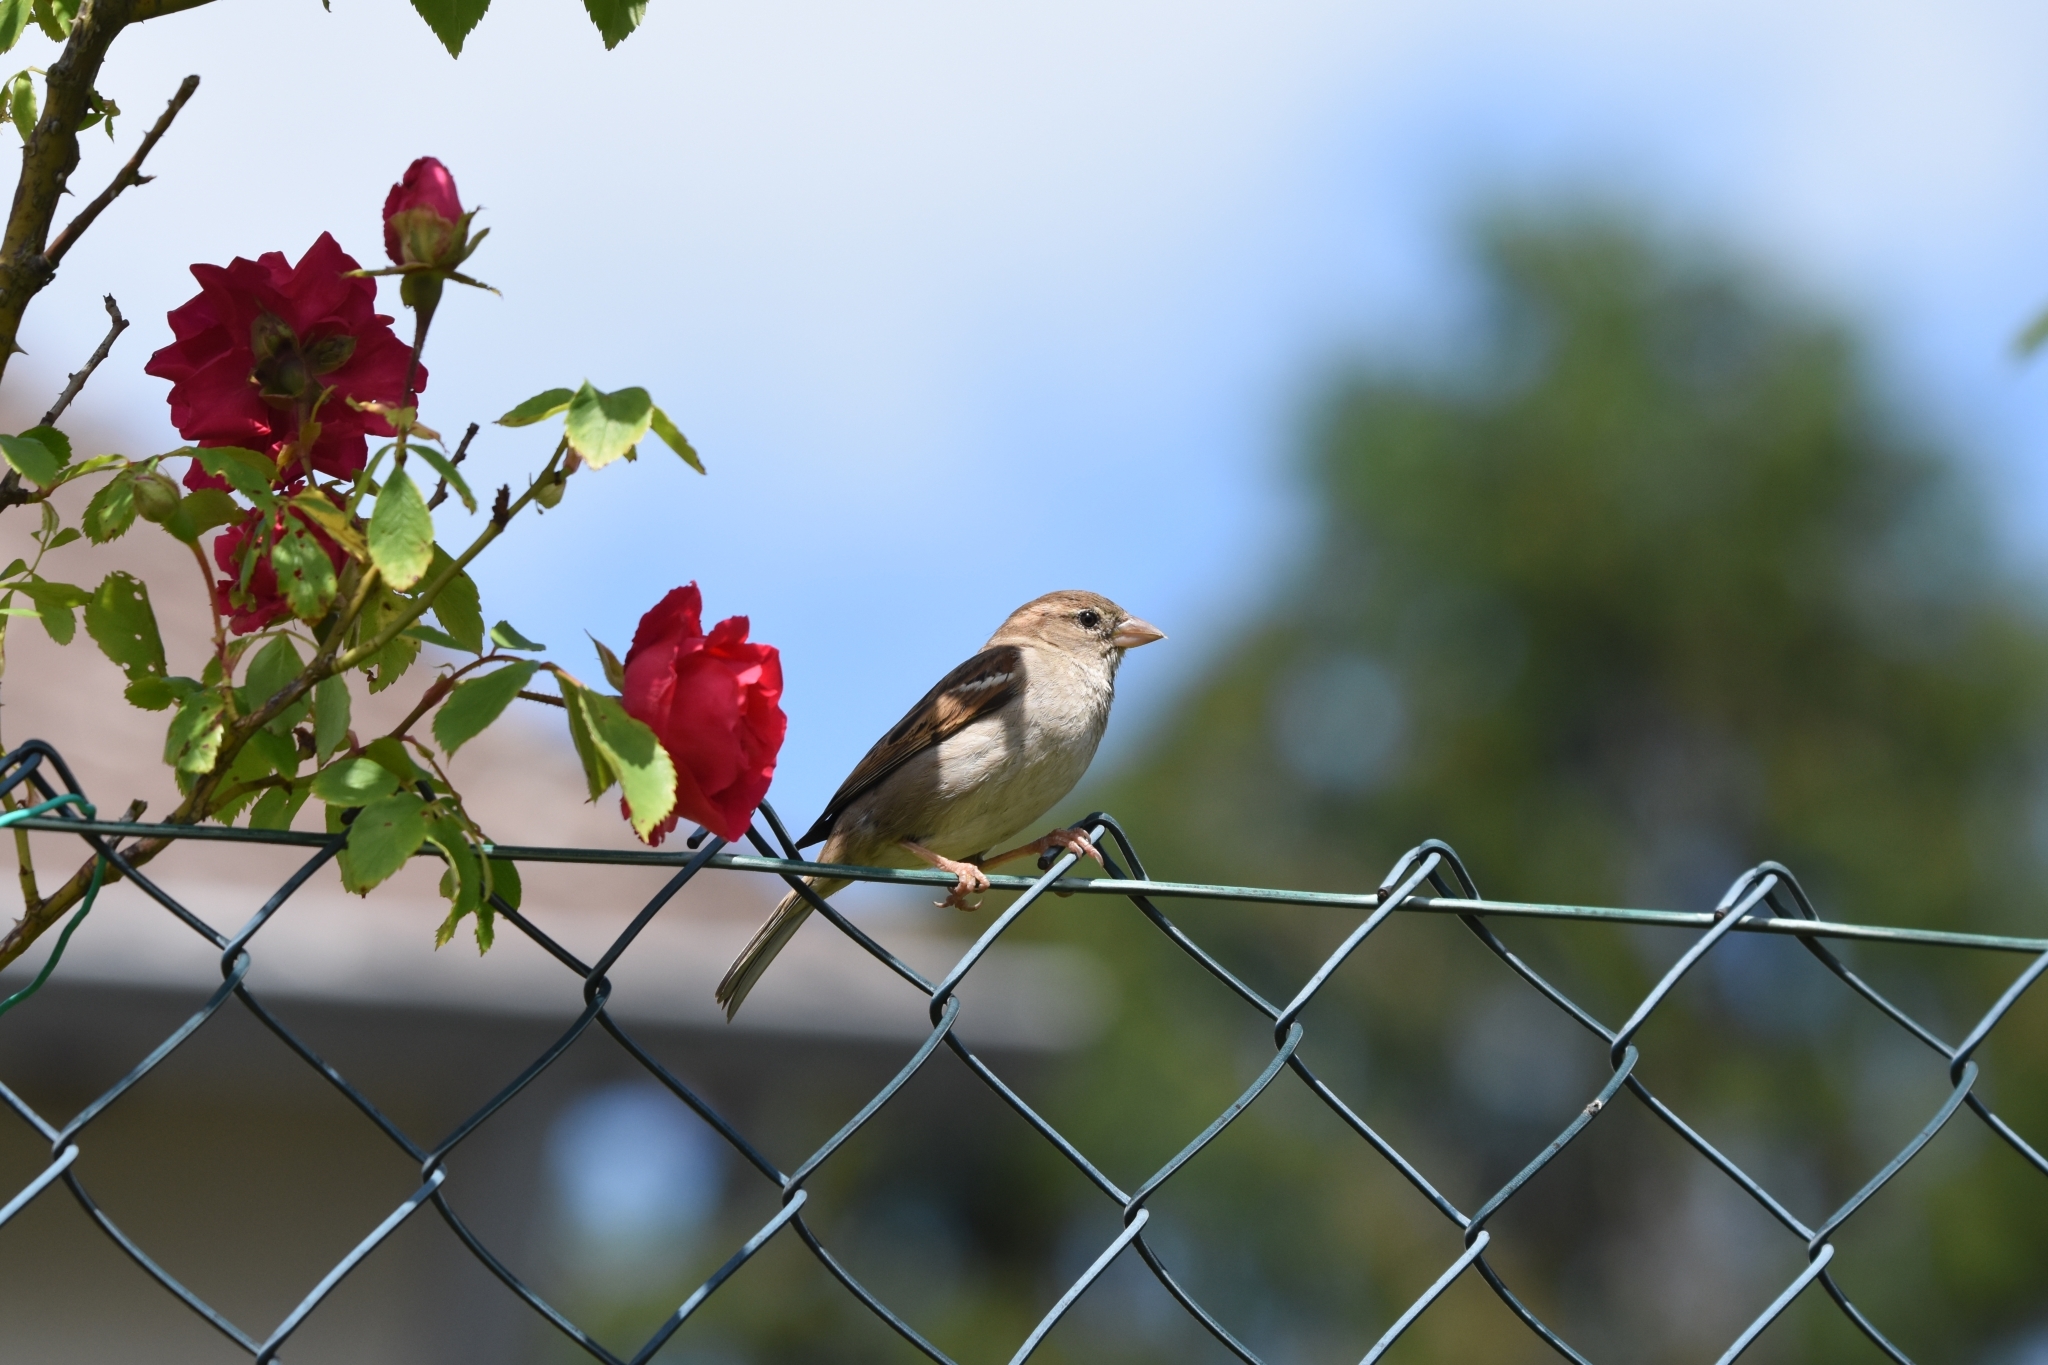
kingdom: Animalia
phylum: Chordata
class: Aves
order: Passeriformes
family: Passeridae
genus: Passer
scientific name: Passer domesticus
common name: House sparrow
